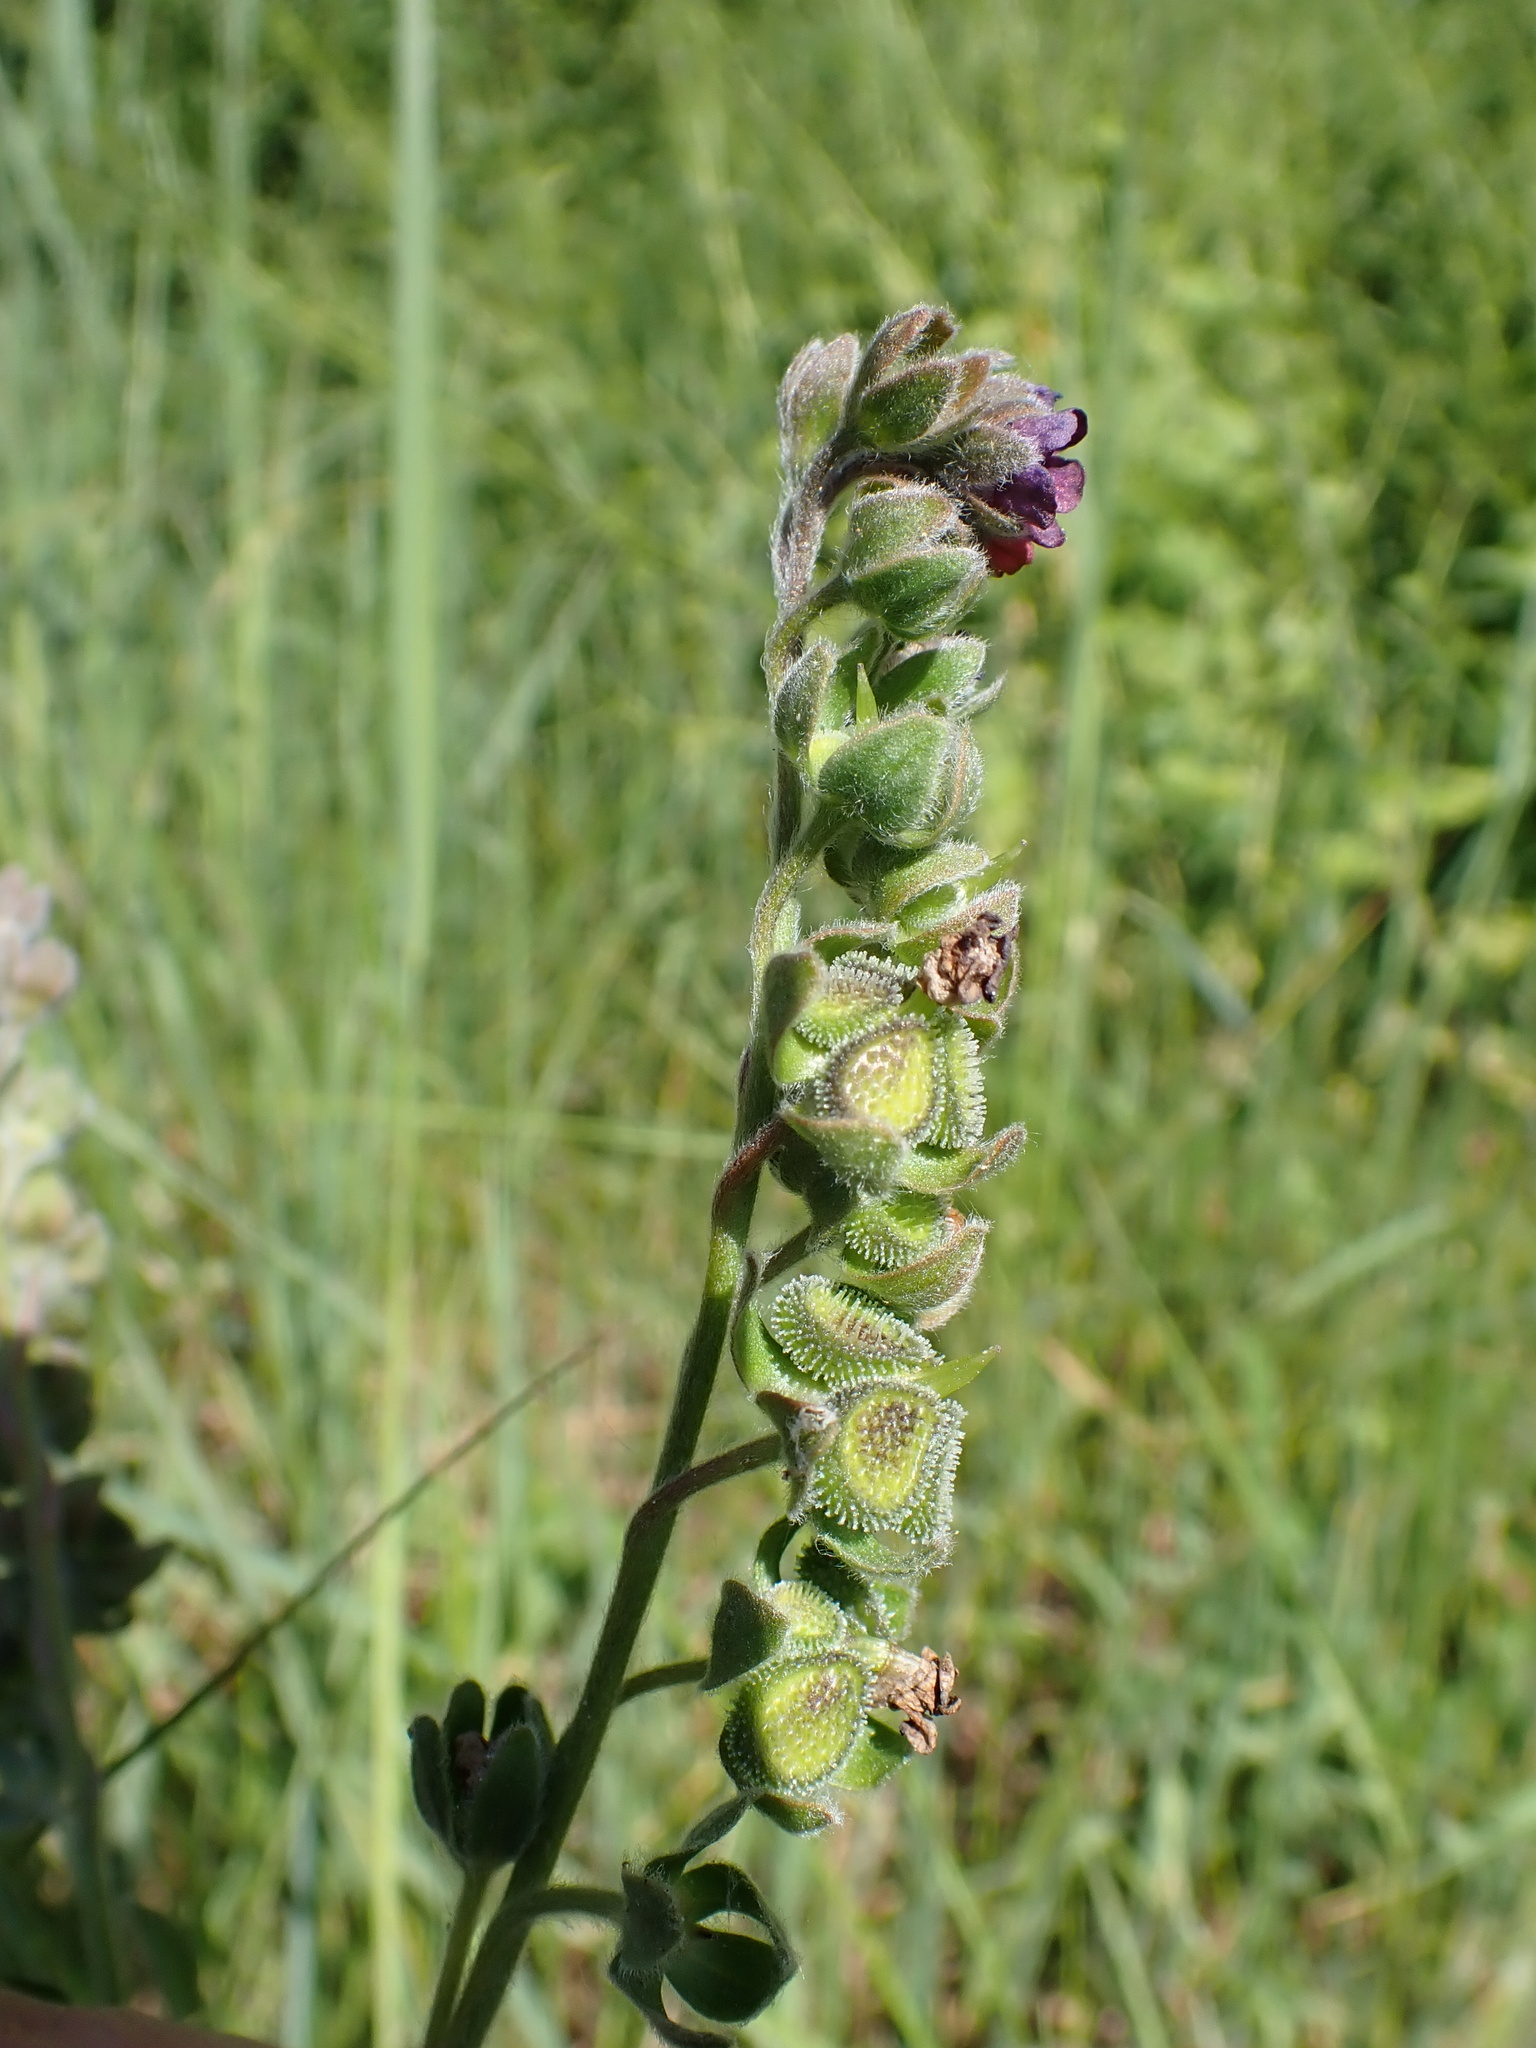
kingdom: Plantae
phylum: Tracheophyta
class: Magnoliopsida
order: Boraginales
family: Boraginaceae
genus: Cynoglossum
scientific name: Cynoglossum officinale
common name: Hound's-tongue
